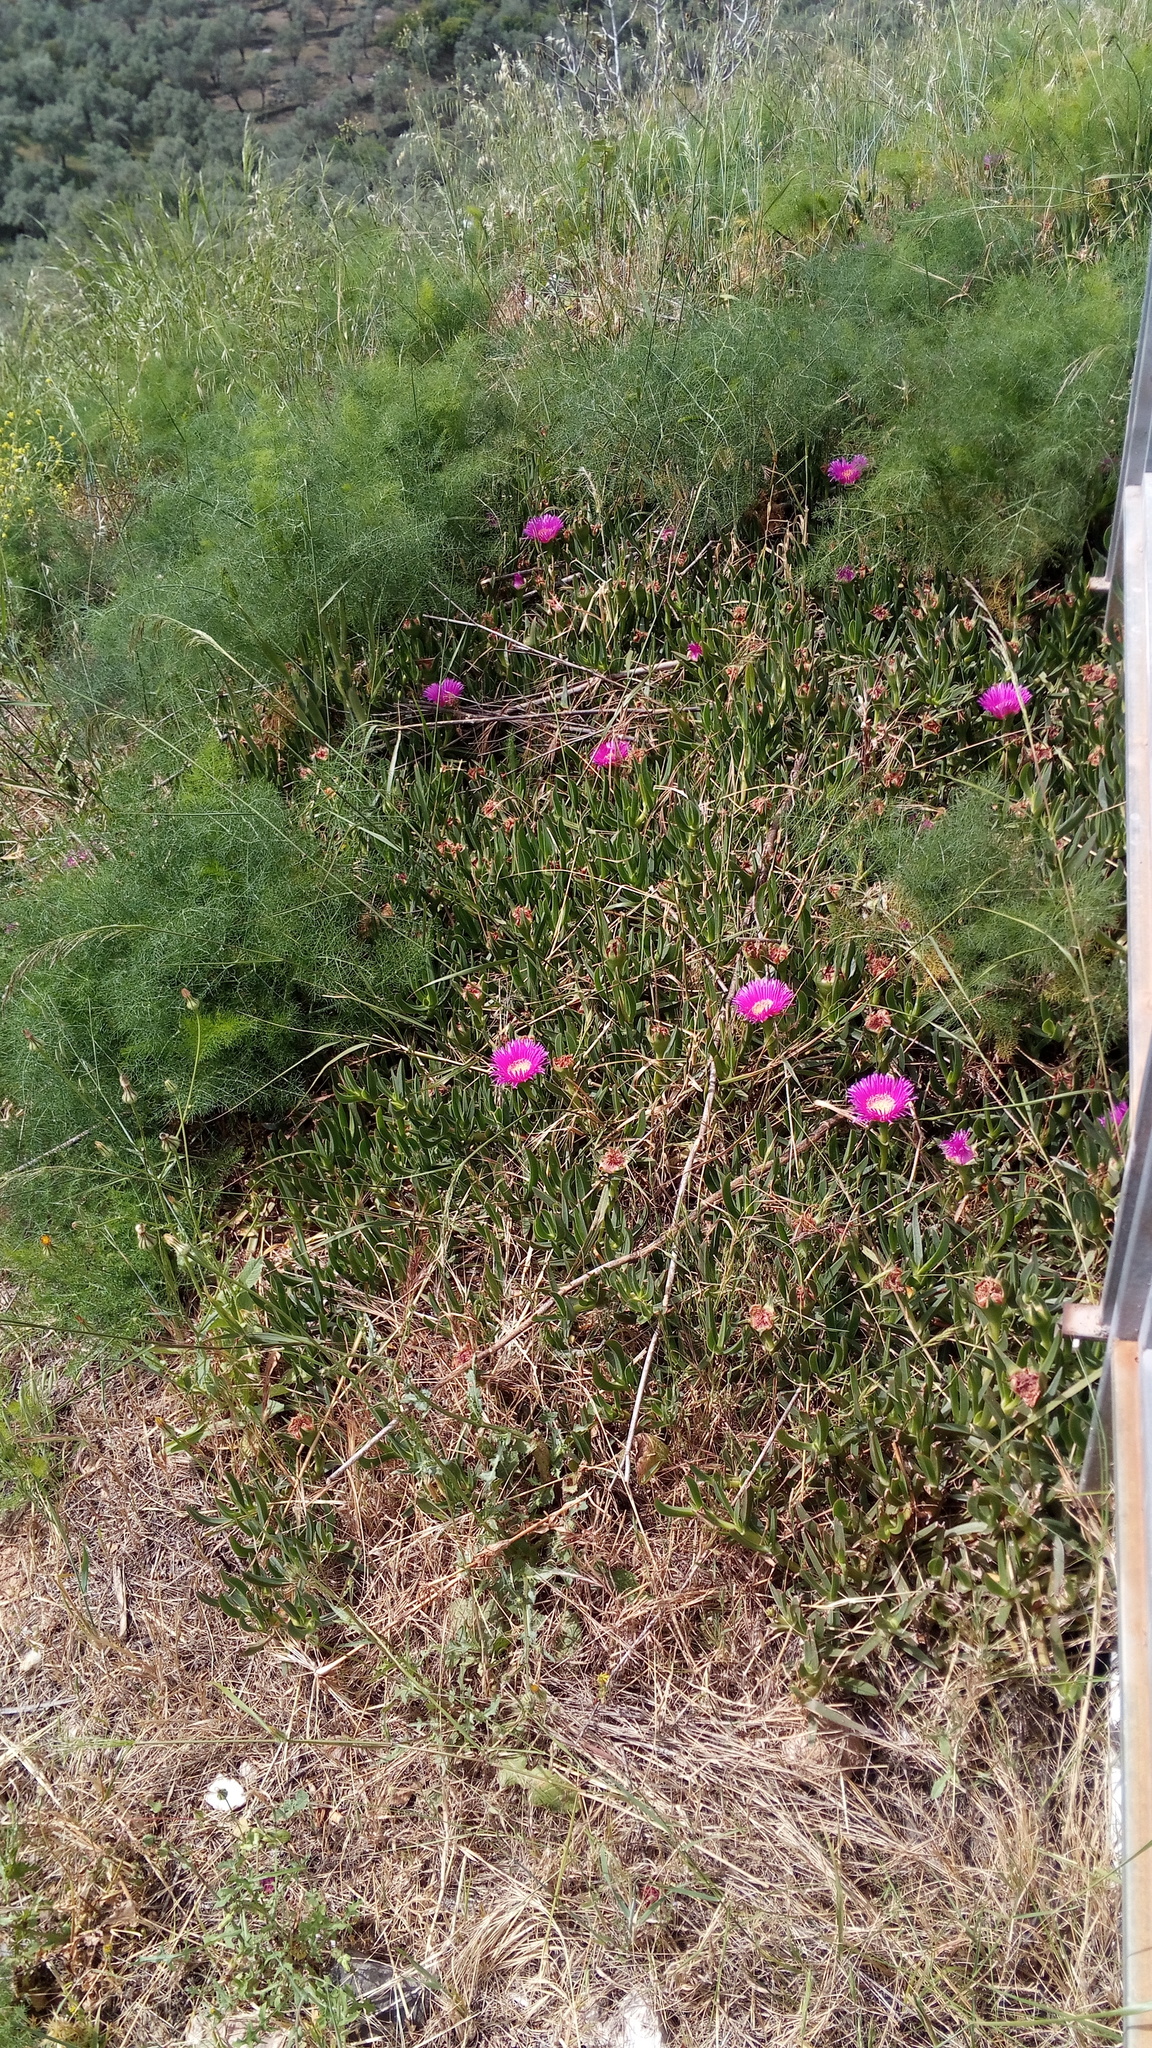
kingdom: Plantae
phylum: Tracheophyta
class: Magnoliopsida
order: Caryophyllales
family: Aizoaceae
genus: Carpobrotus
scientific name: Carpobrotus acinaciformis
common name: Sally-my-handsome
